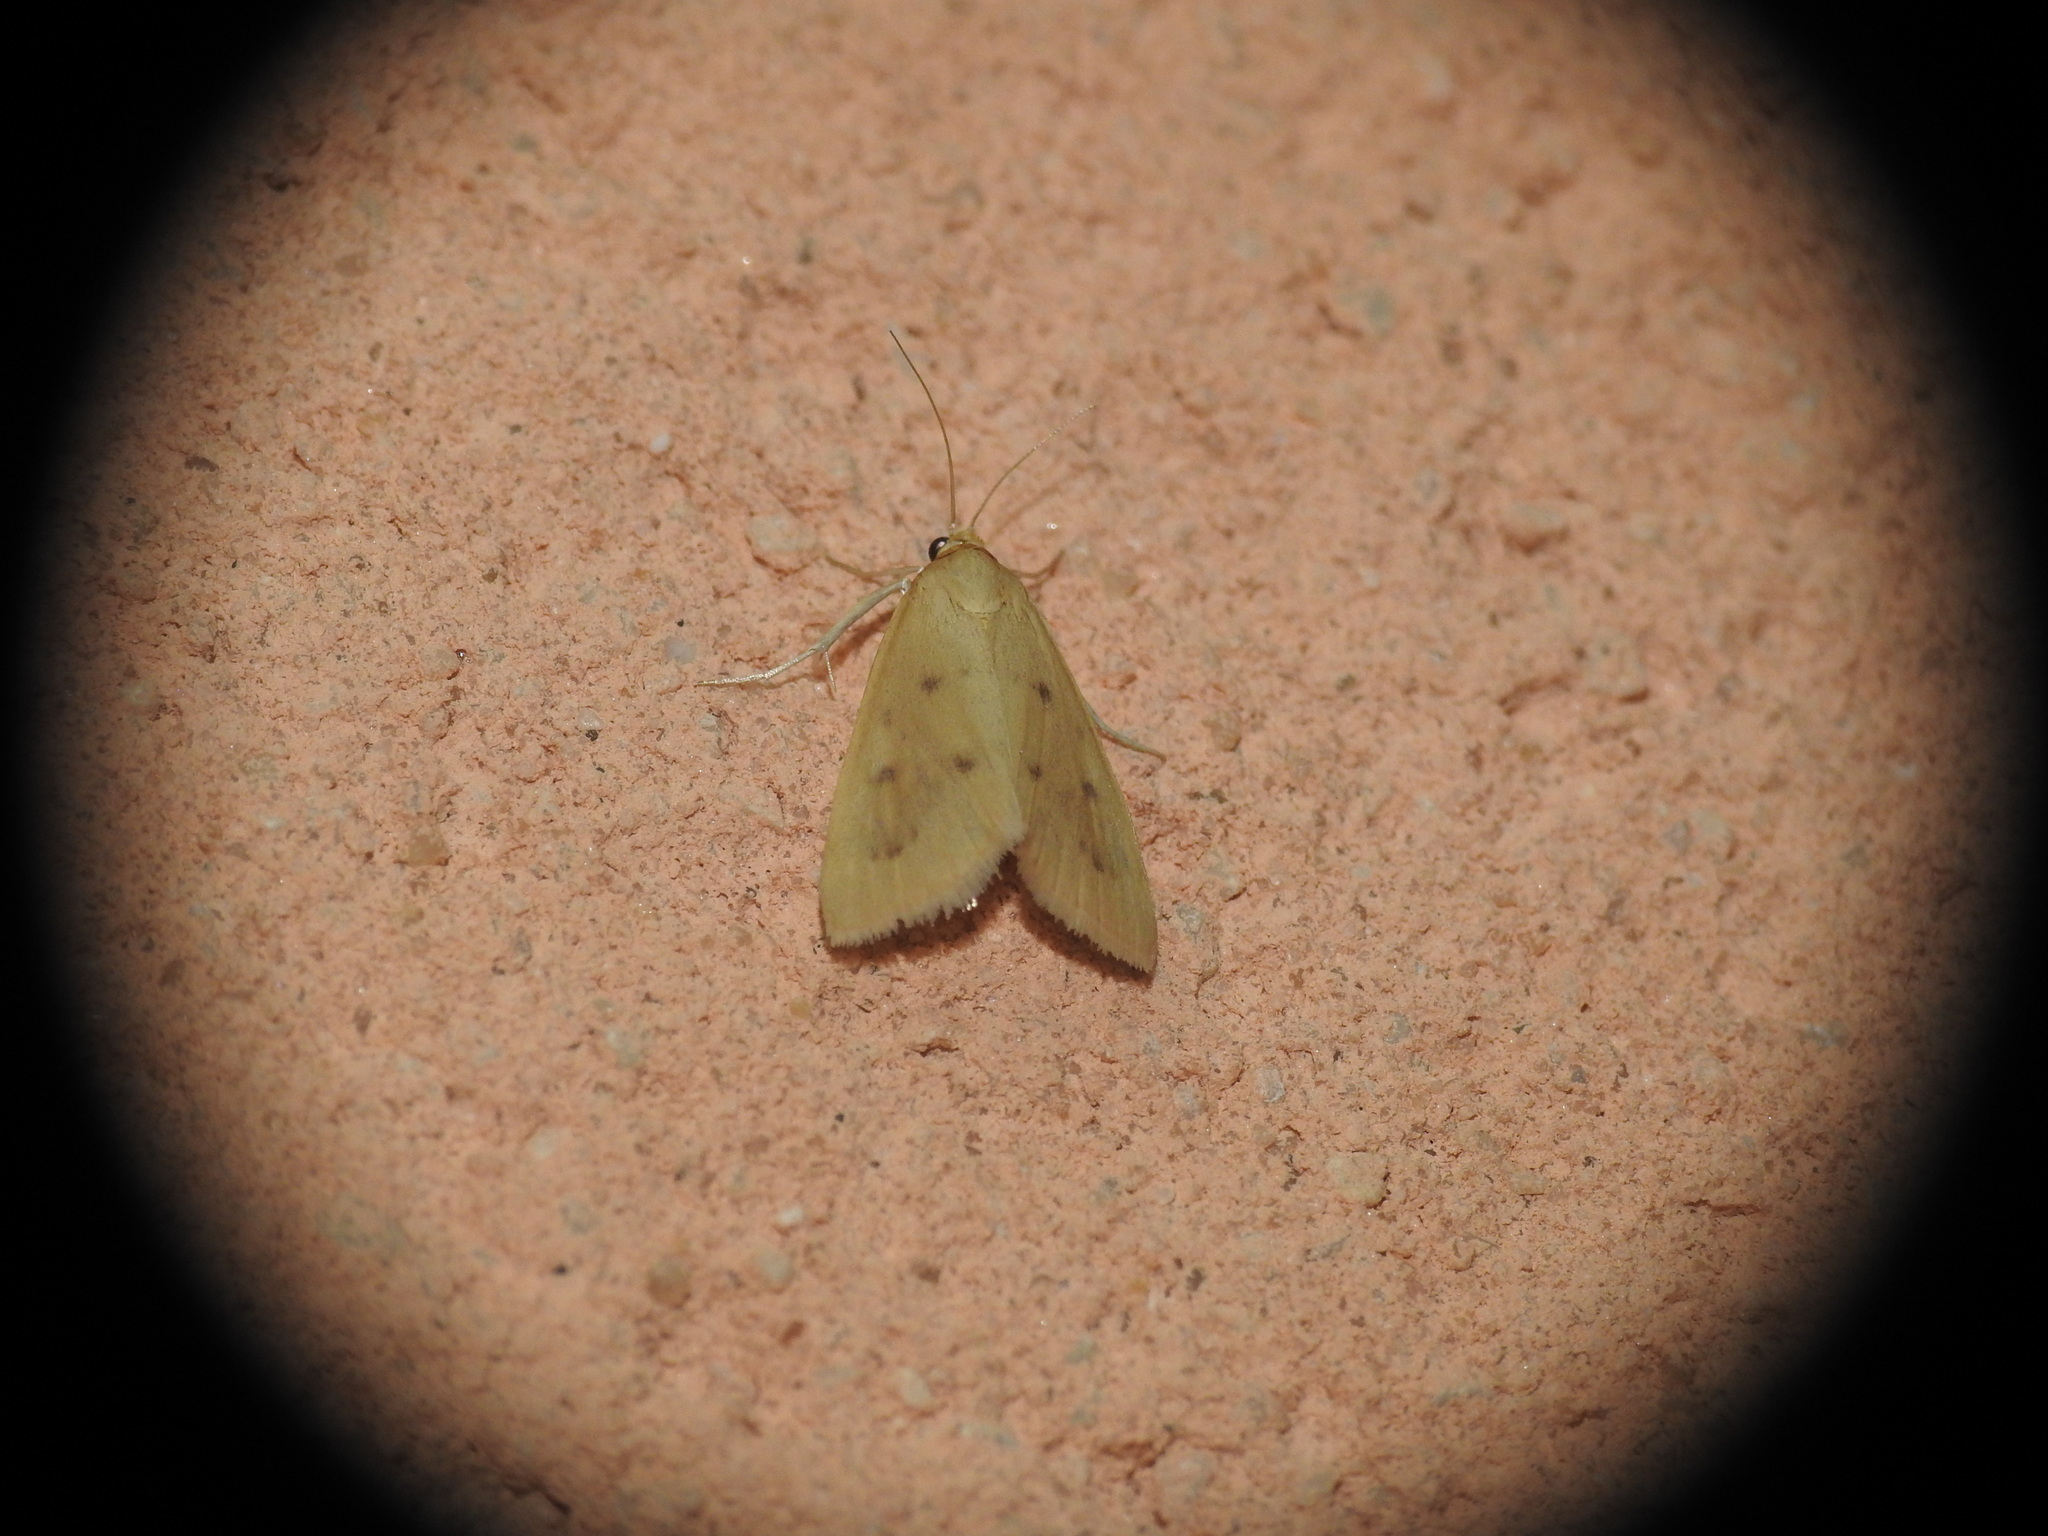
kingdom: Animalia
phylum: Arthropoda
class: Insecta
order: Lepidoptera
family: Crambidae
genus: Achyra
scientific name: Achyra nudalis
